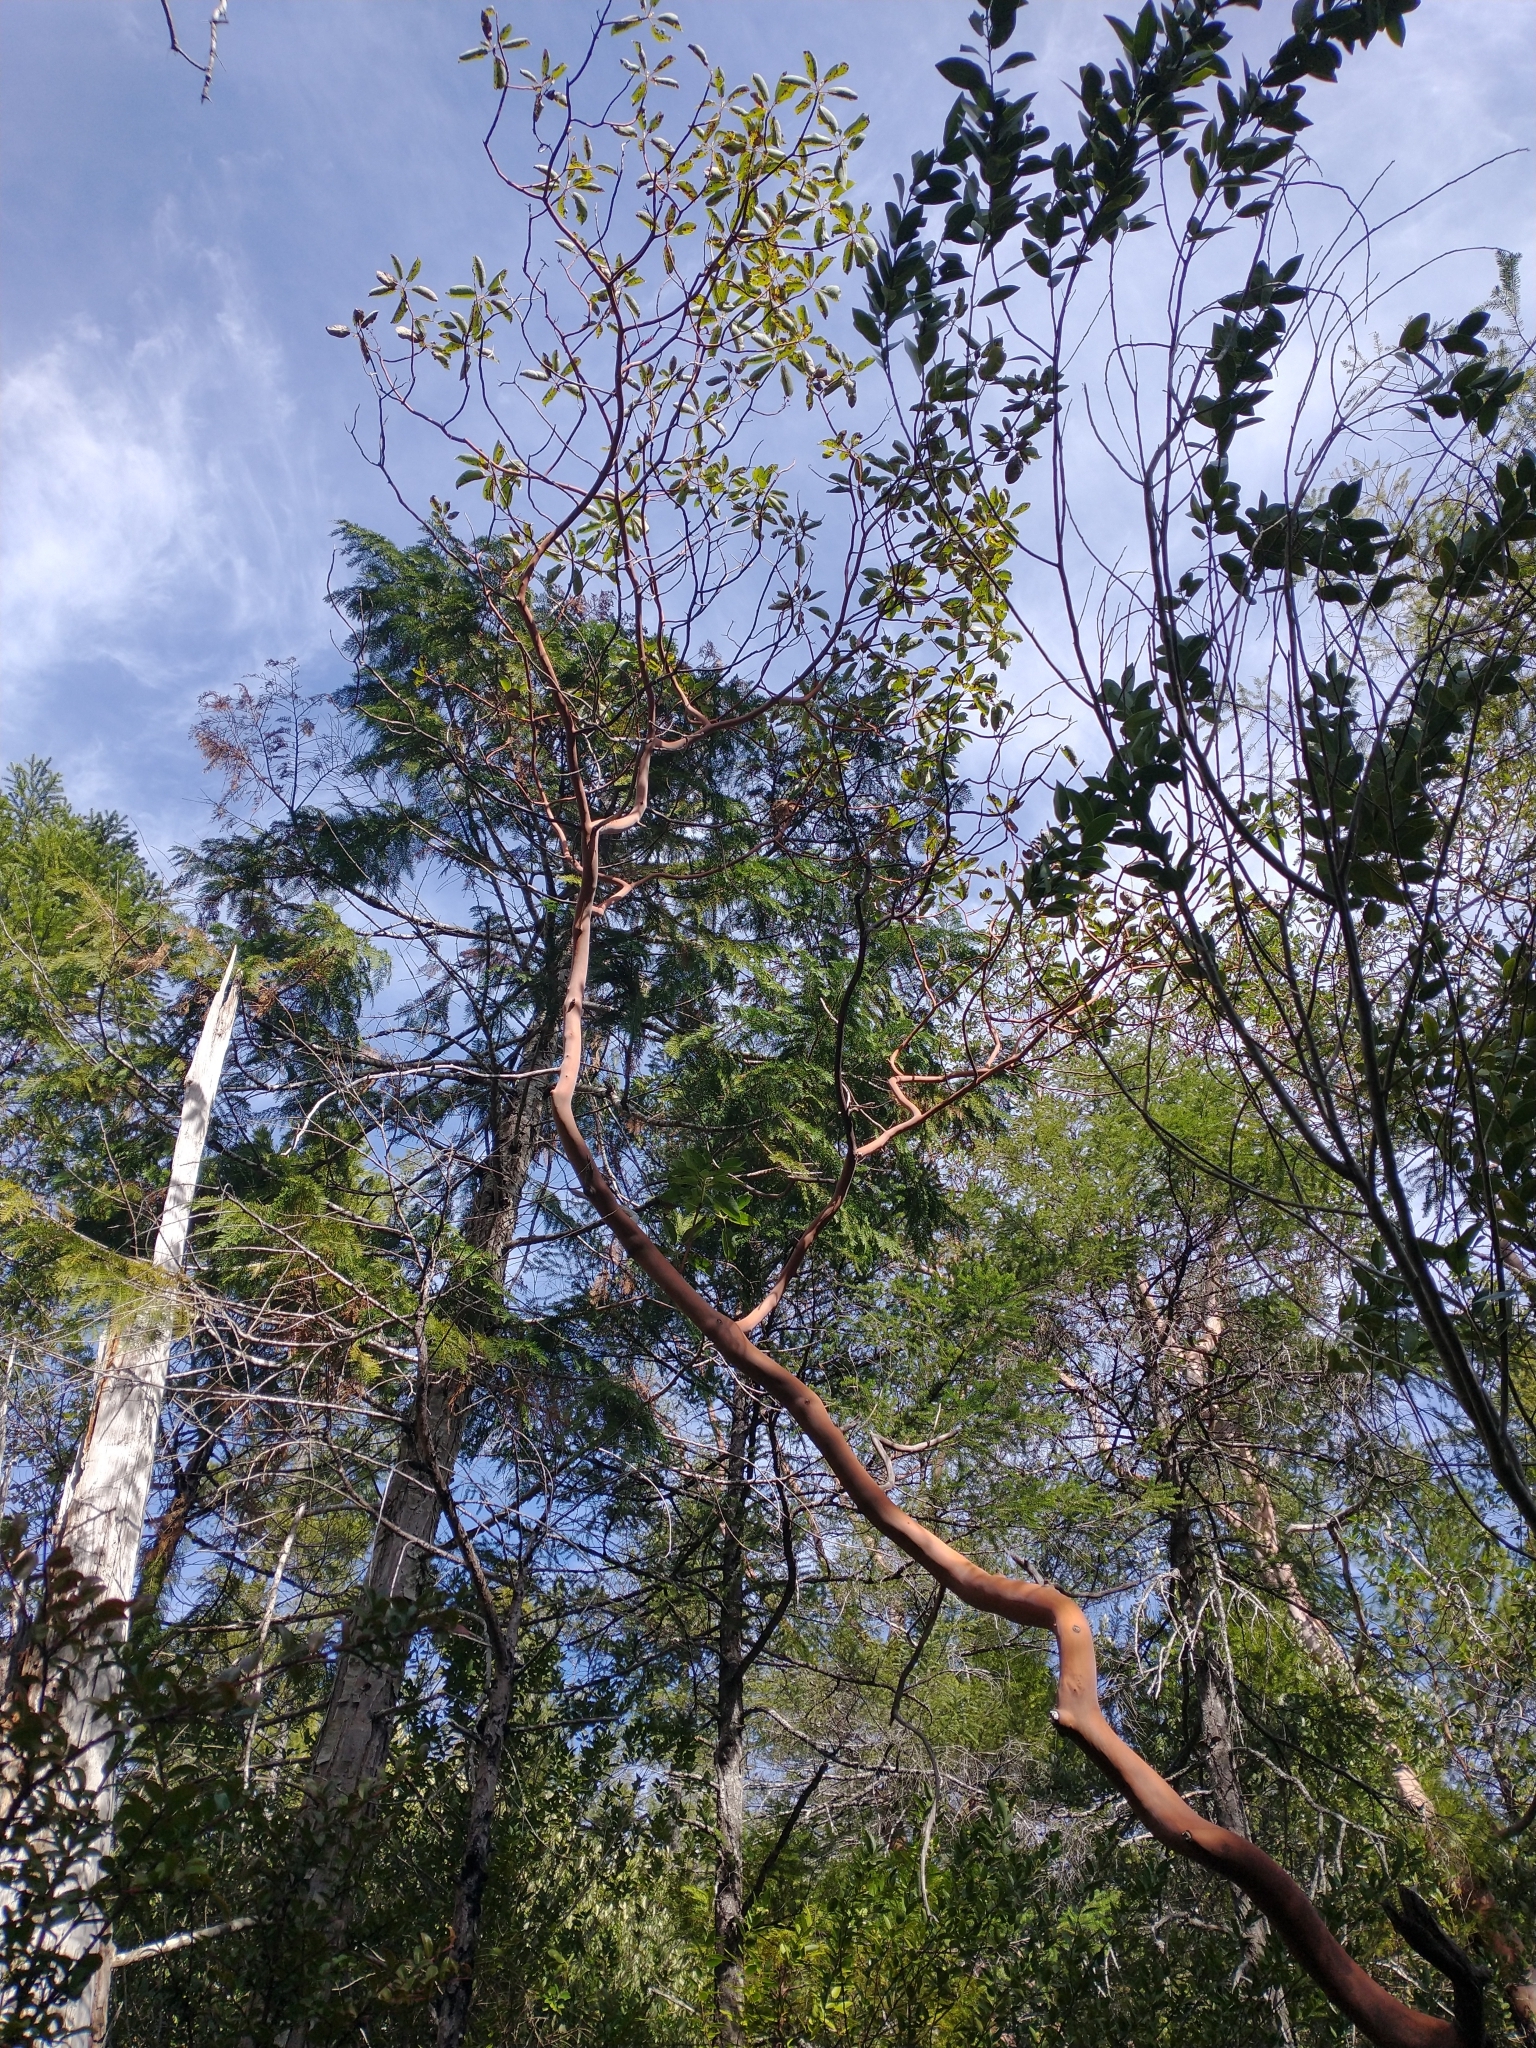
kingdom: Plantae
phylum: Tracheophyta
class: Magnoliopsida
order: Ericales
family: Ericaceae
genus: Arbutus
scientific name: Arbutus menziesii
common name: Pacific madrone
